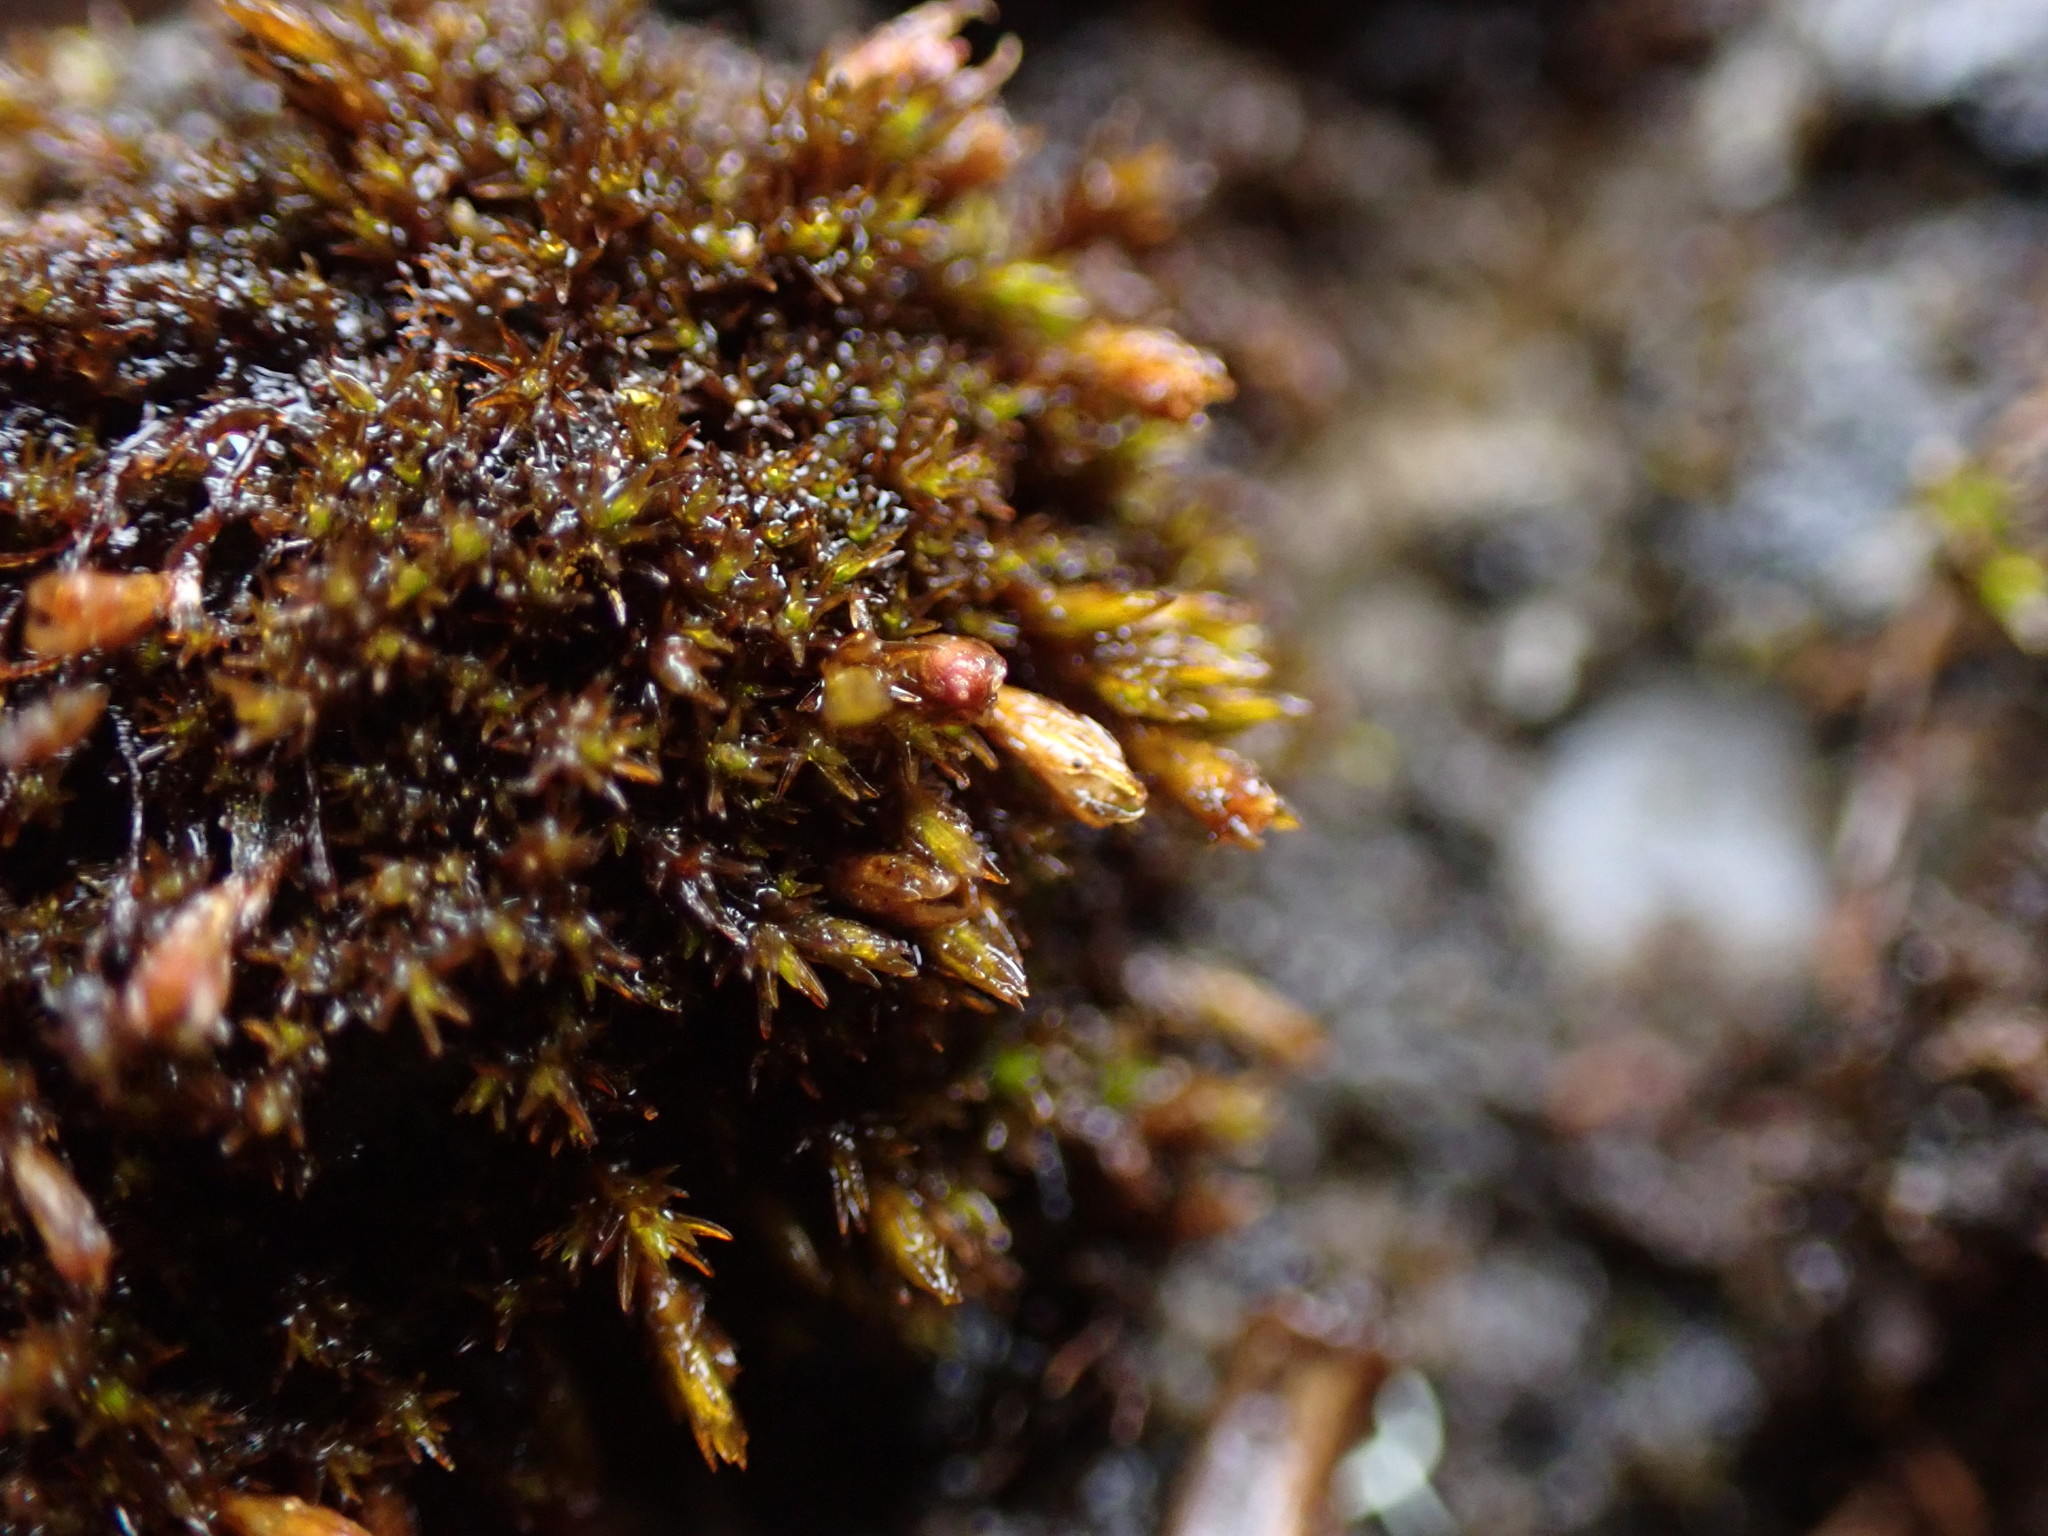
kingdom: Plantae
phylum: Bryophyta
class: Bryopsida
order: Grimmiales
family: Grimmiaceae
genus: Schistidium
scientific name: Schistidium atrichum
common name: Small bloom moss
